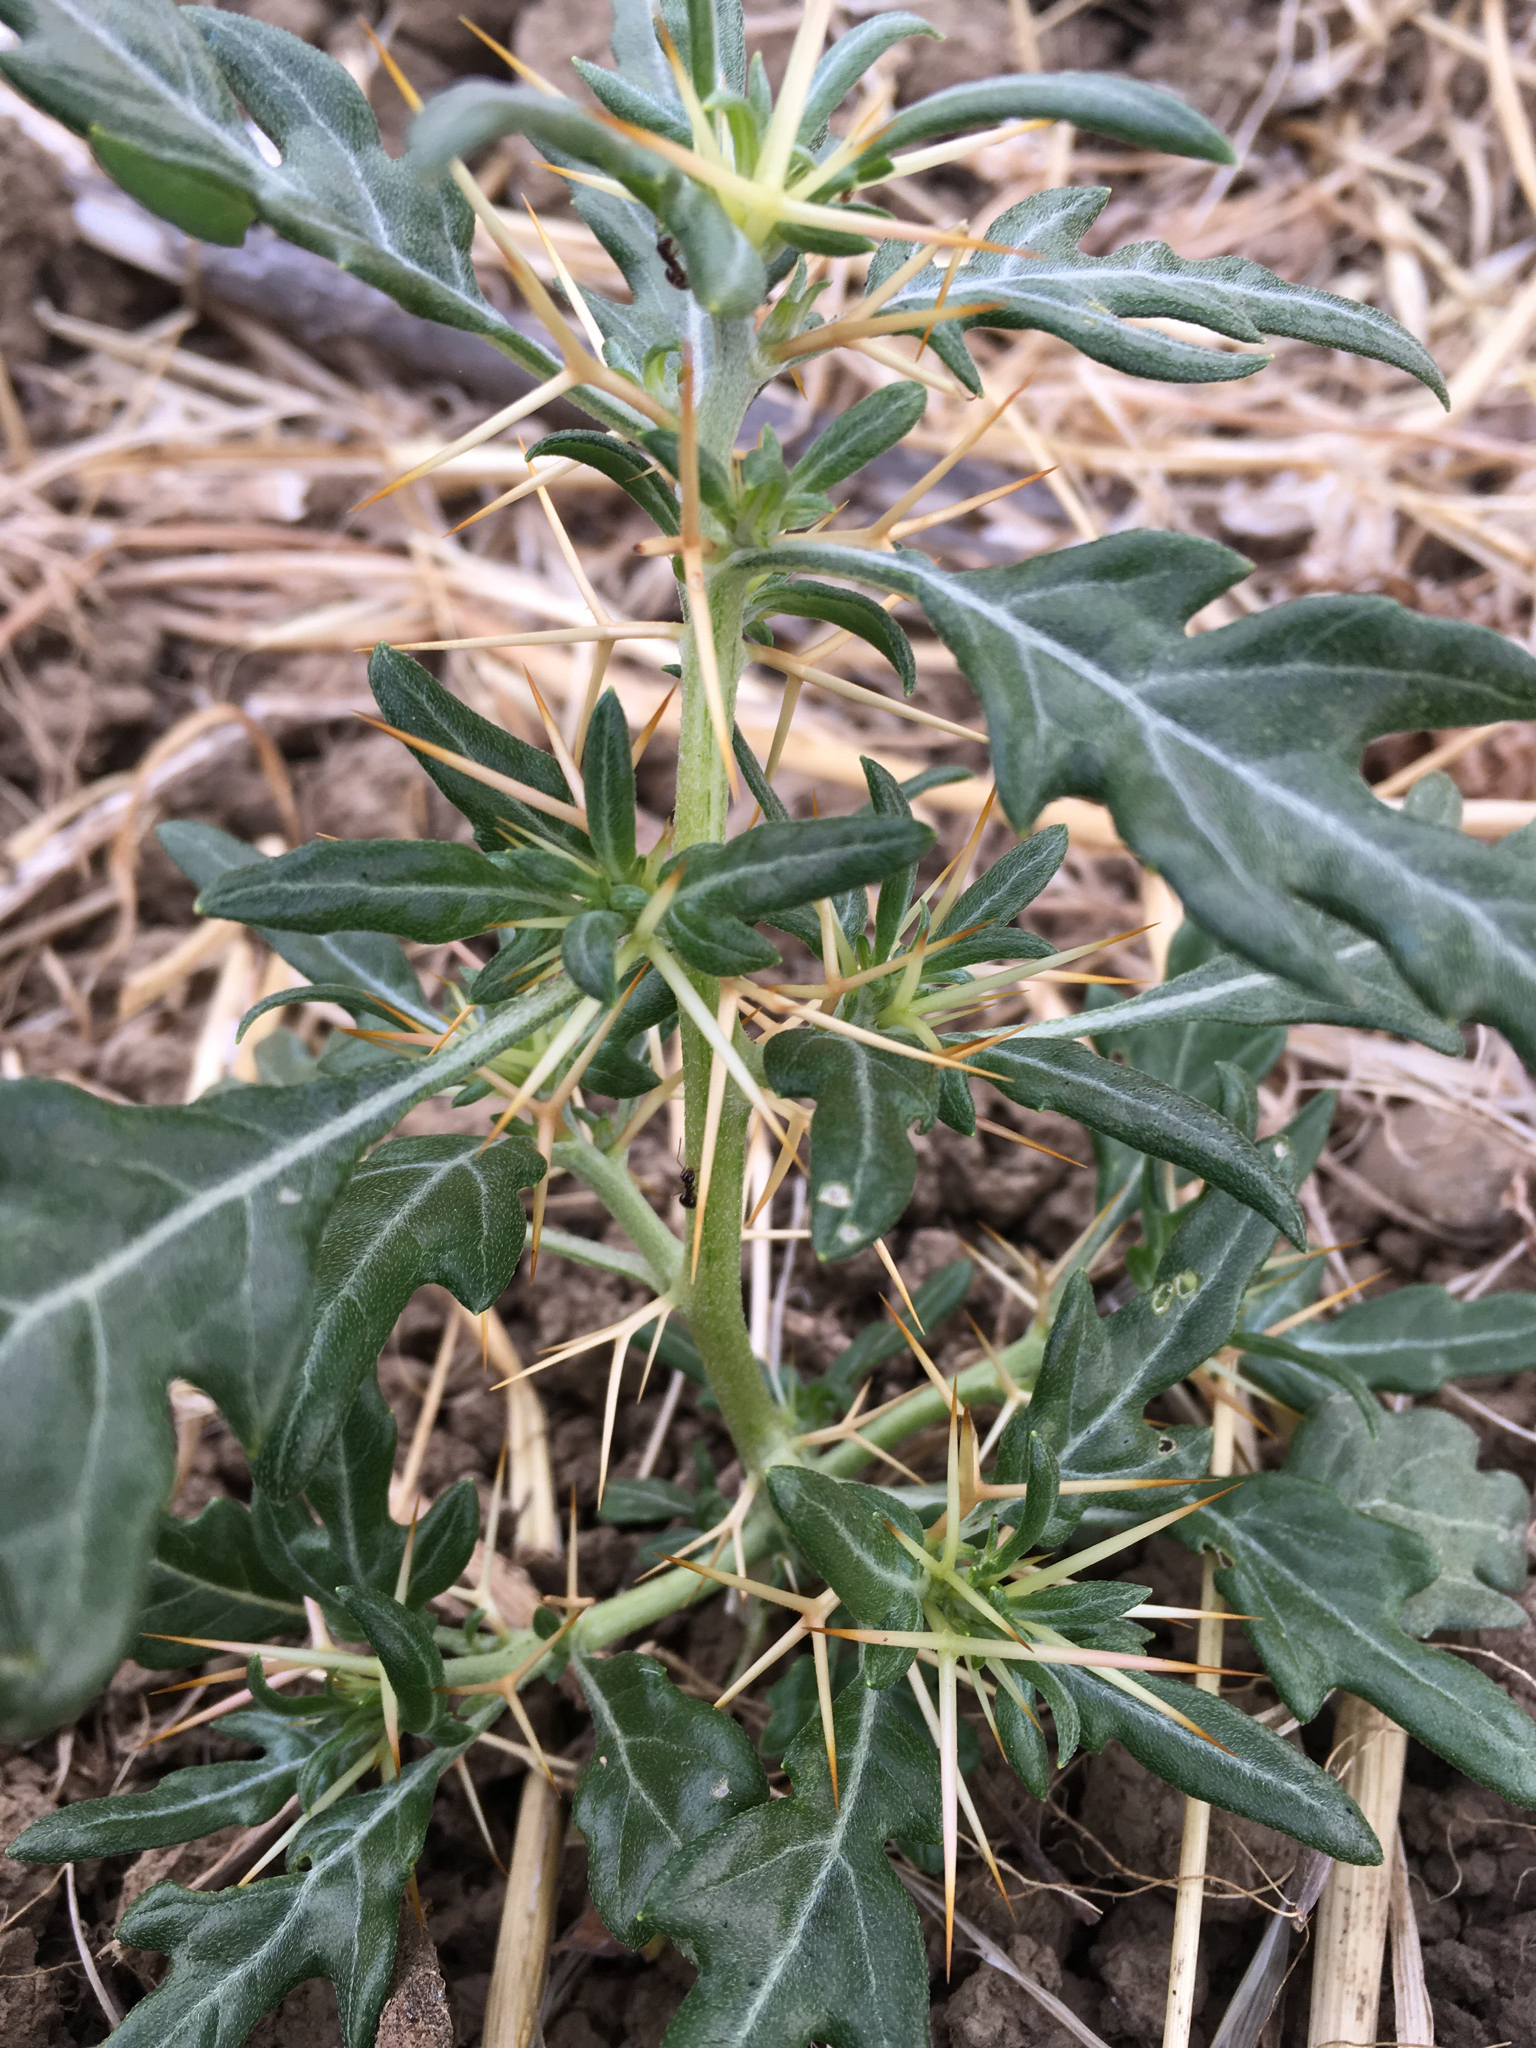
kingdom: Plantae
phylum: Tracheophyta
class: Magnoliopsida
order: Asterales
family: Asteraceae
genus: Xanthium
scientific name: Xanthium spinosum
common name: Spiny cocklebur
